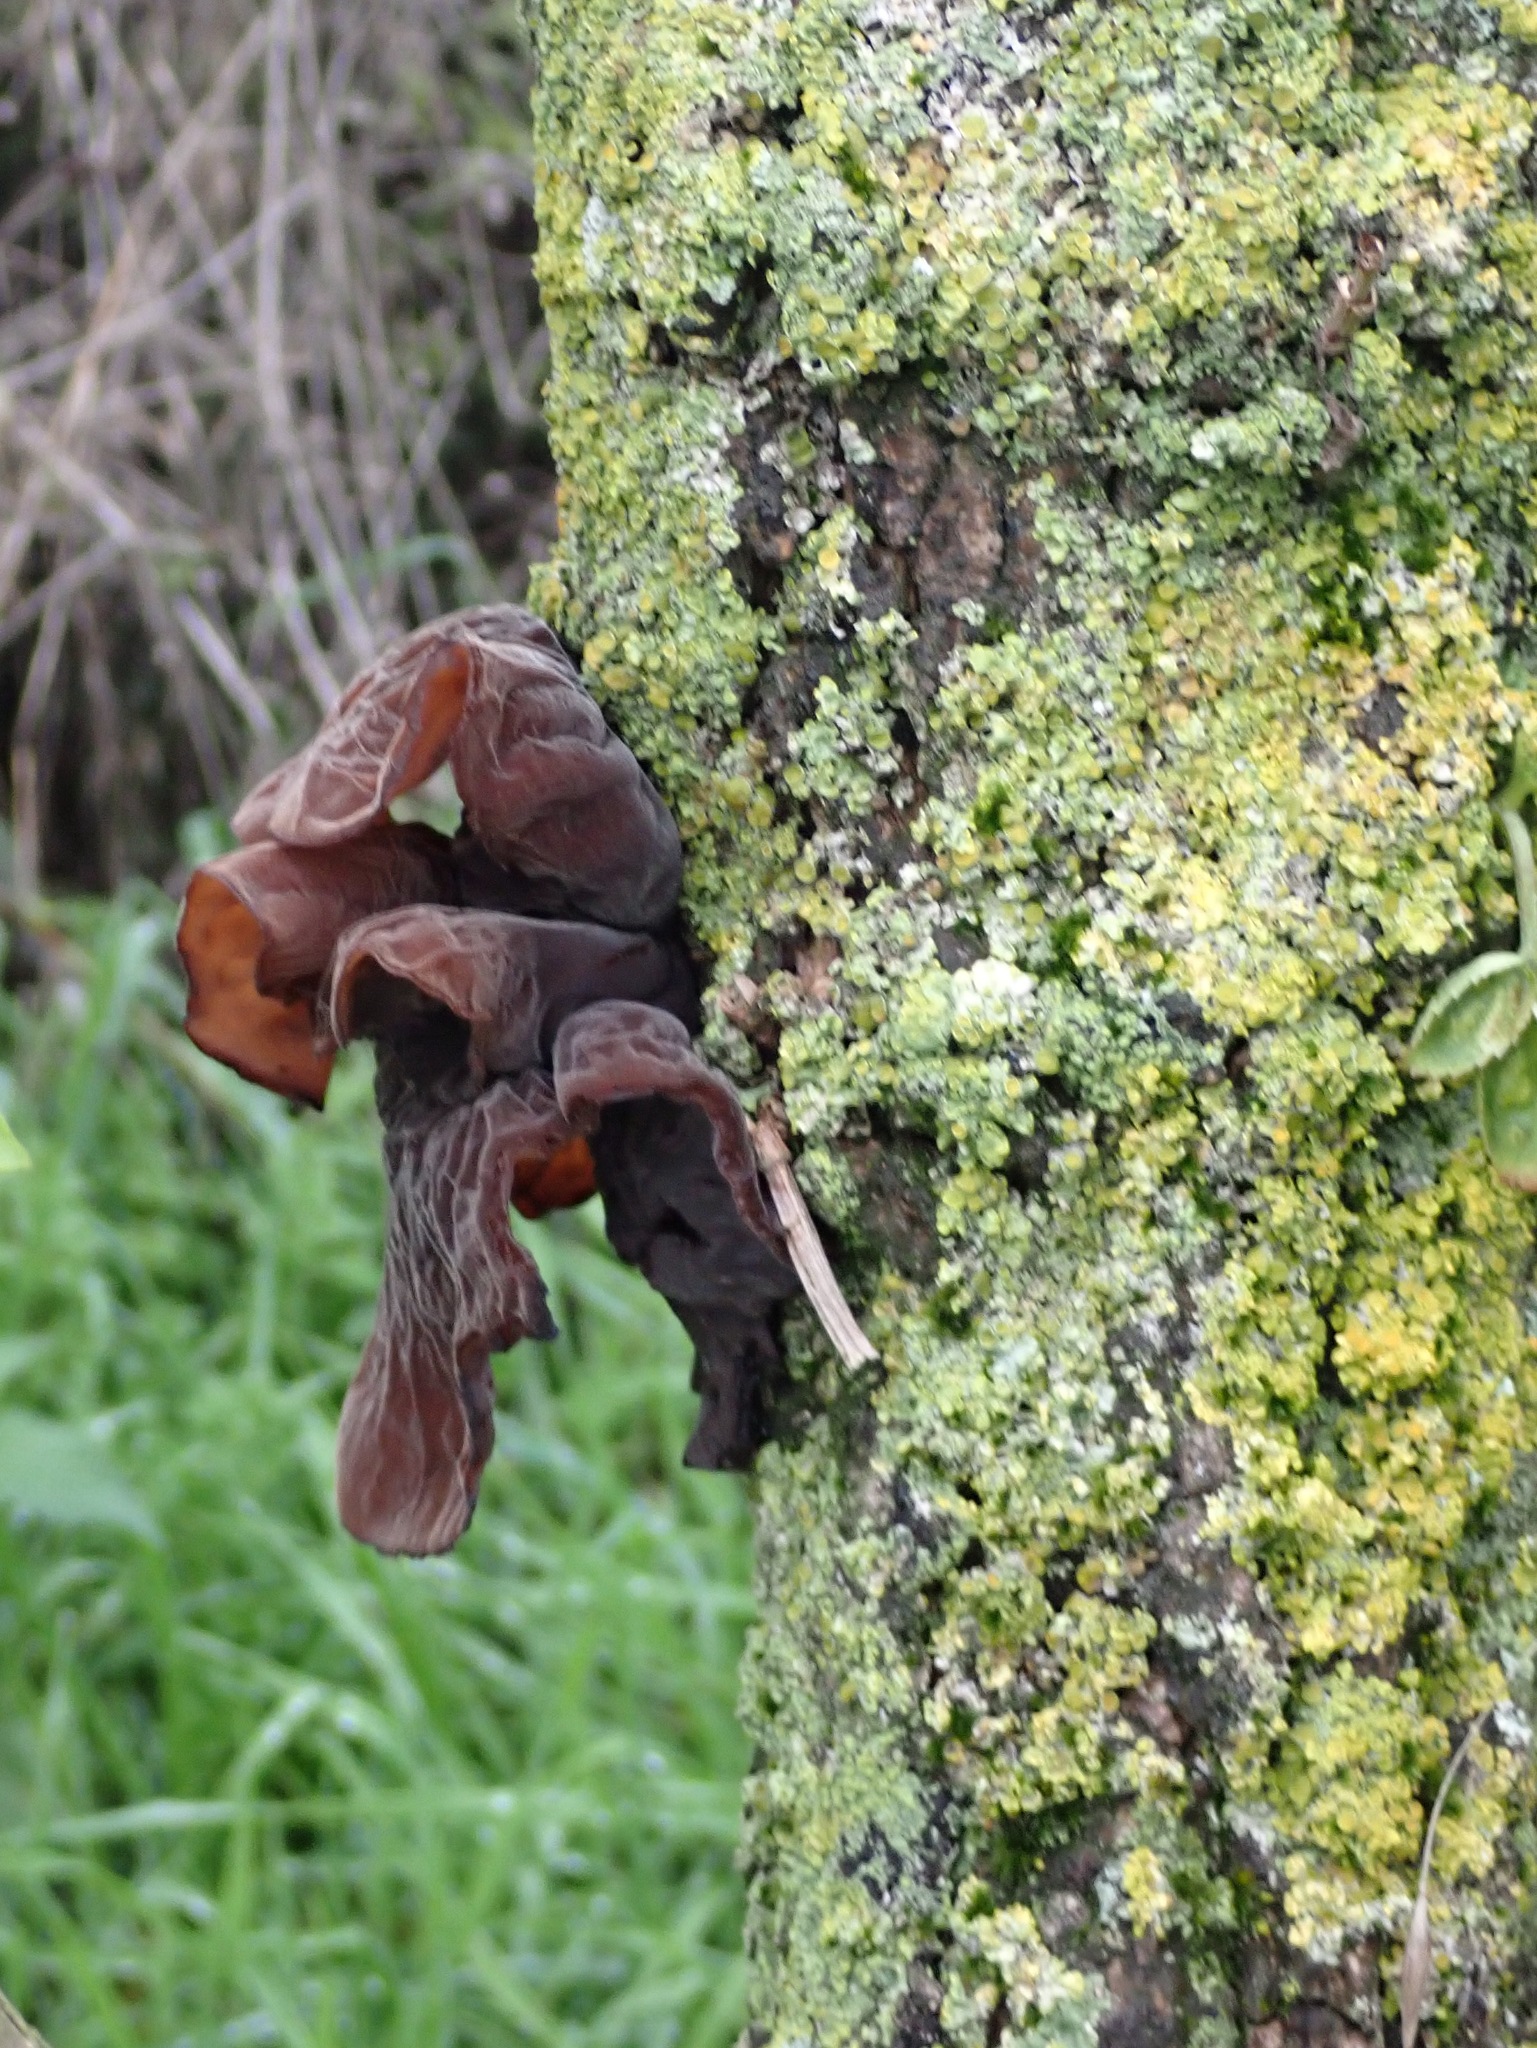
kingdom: Fungi
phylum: Basidiomycota
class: Agaricomycetes
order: Auriculariales
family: Auriculariaceae
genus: Auricularia
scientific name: Auricularia auricula-judae
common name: Jelly ear
